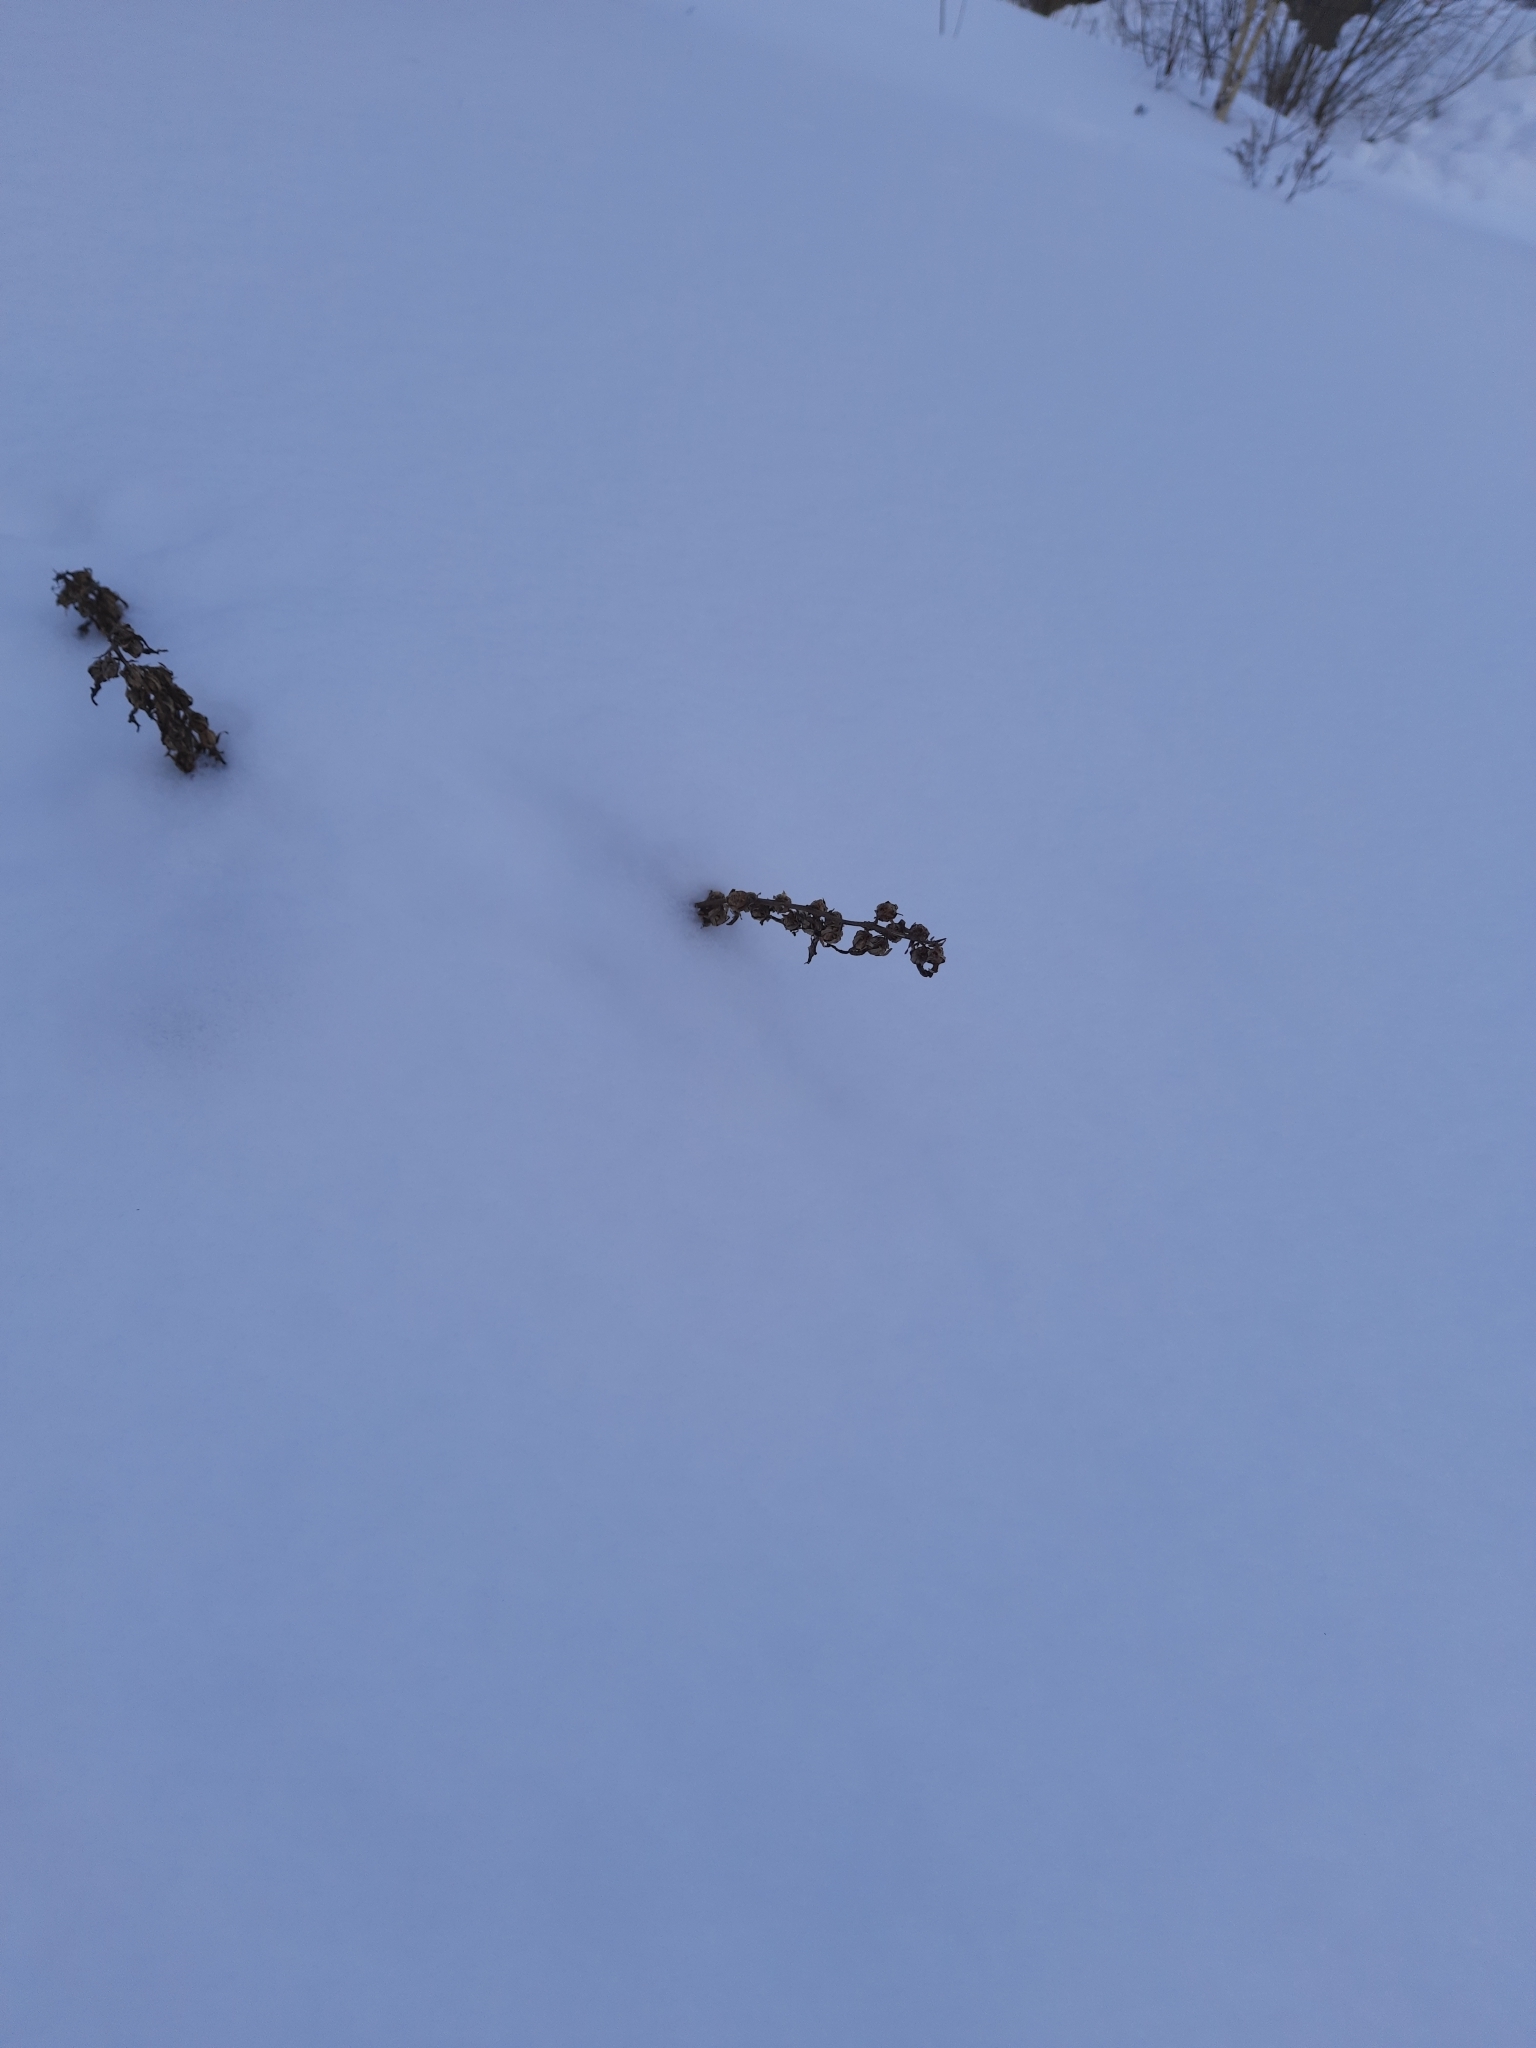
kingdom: Plantae
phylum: Tracheophyta
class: Magnoliopsida
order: Asterales
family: Campanulaceae
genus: Campanula
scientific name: Campanula rapunculoides
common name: Creeping bellflower
